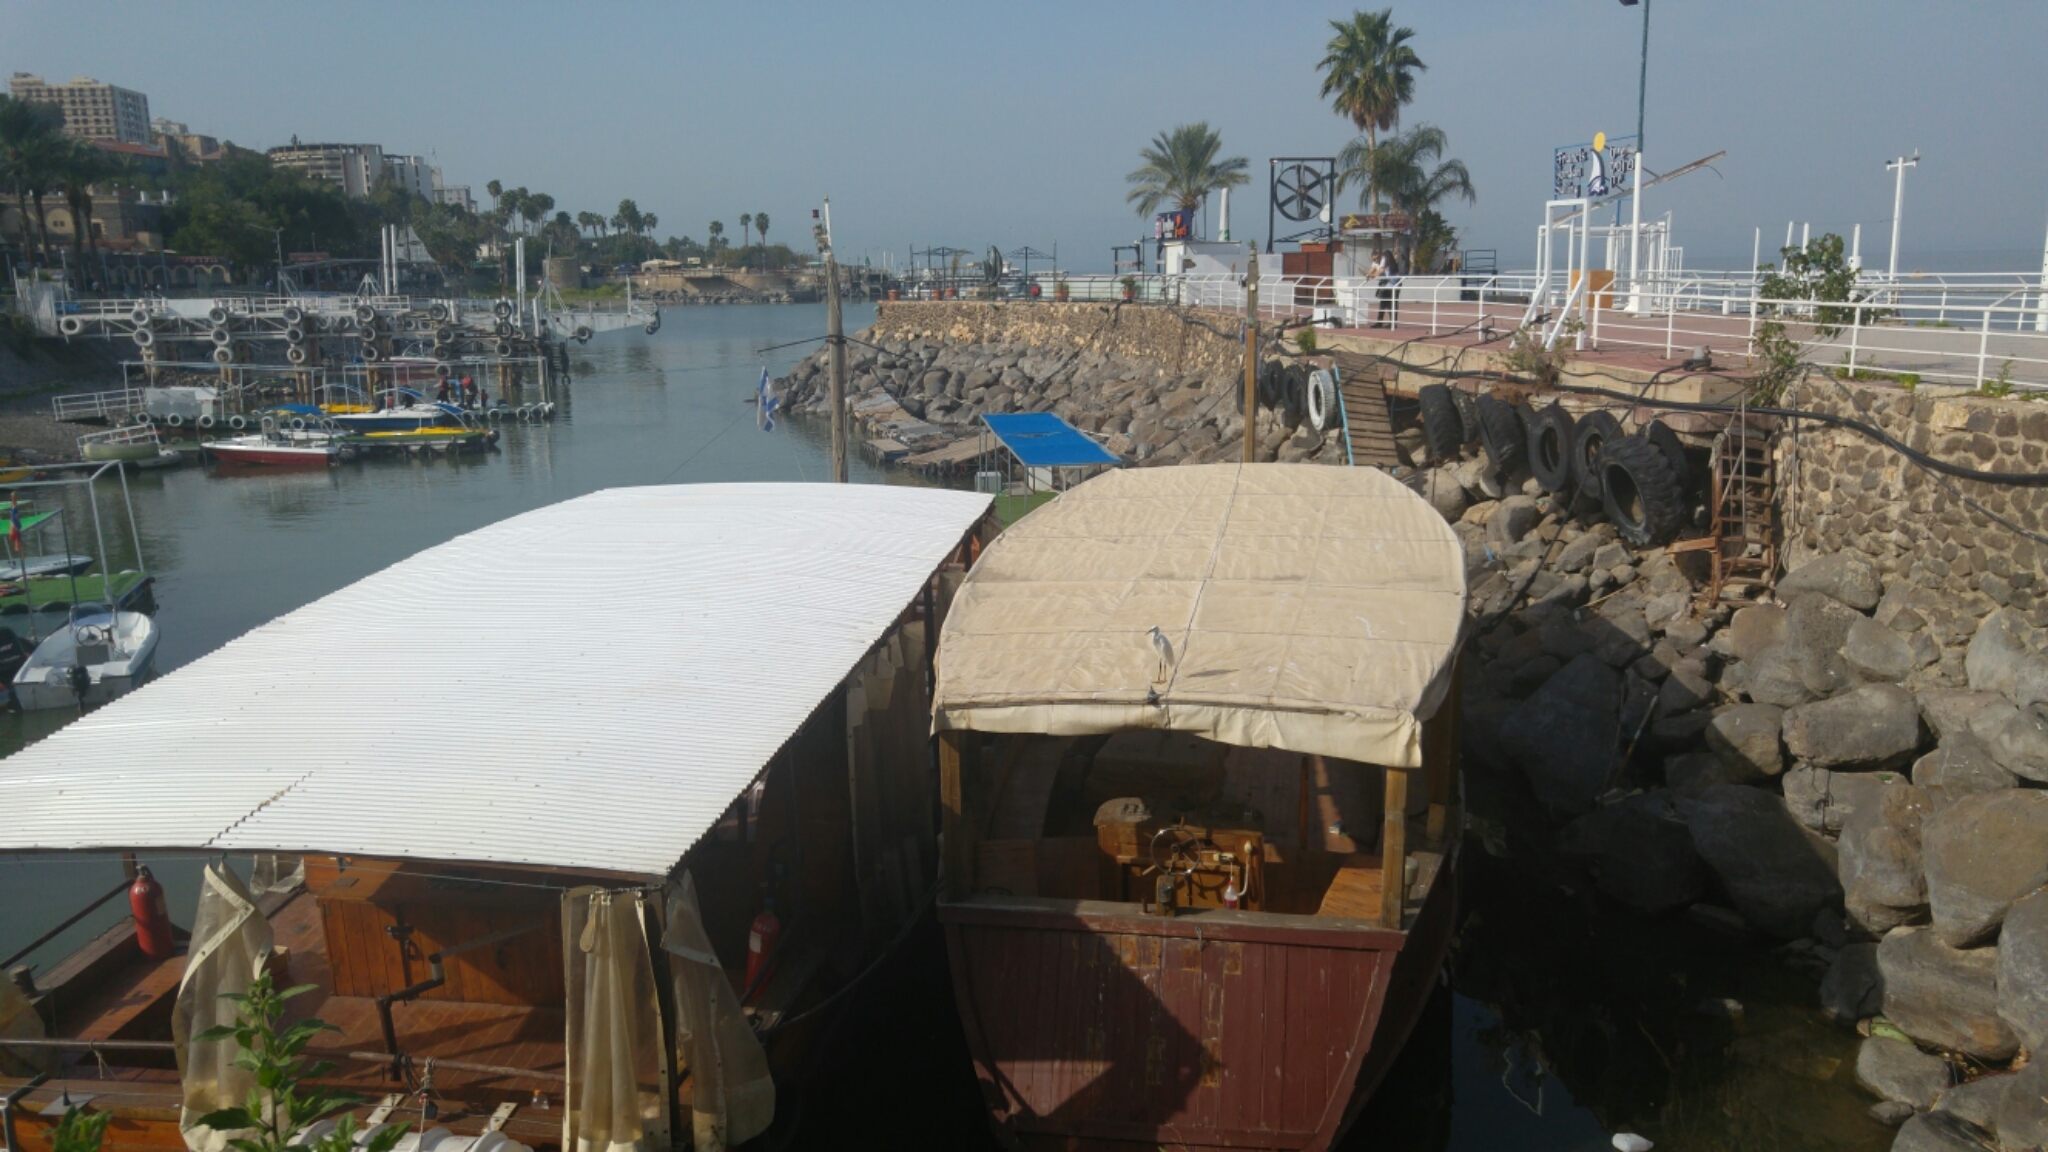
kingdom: Animalia
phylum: Chordata
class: Aves
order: Pelecaniformes
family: Ardeidae
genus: Egretta
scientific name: Egretta garzetta
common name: Little egret
